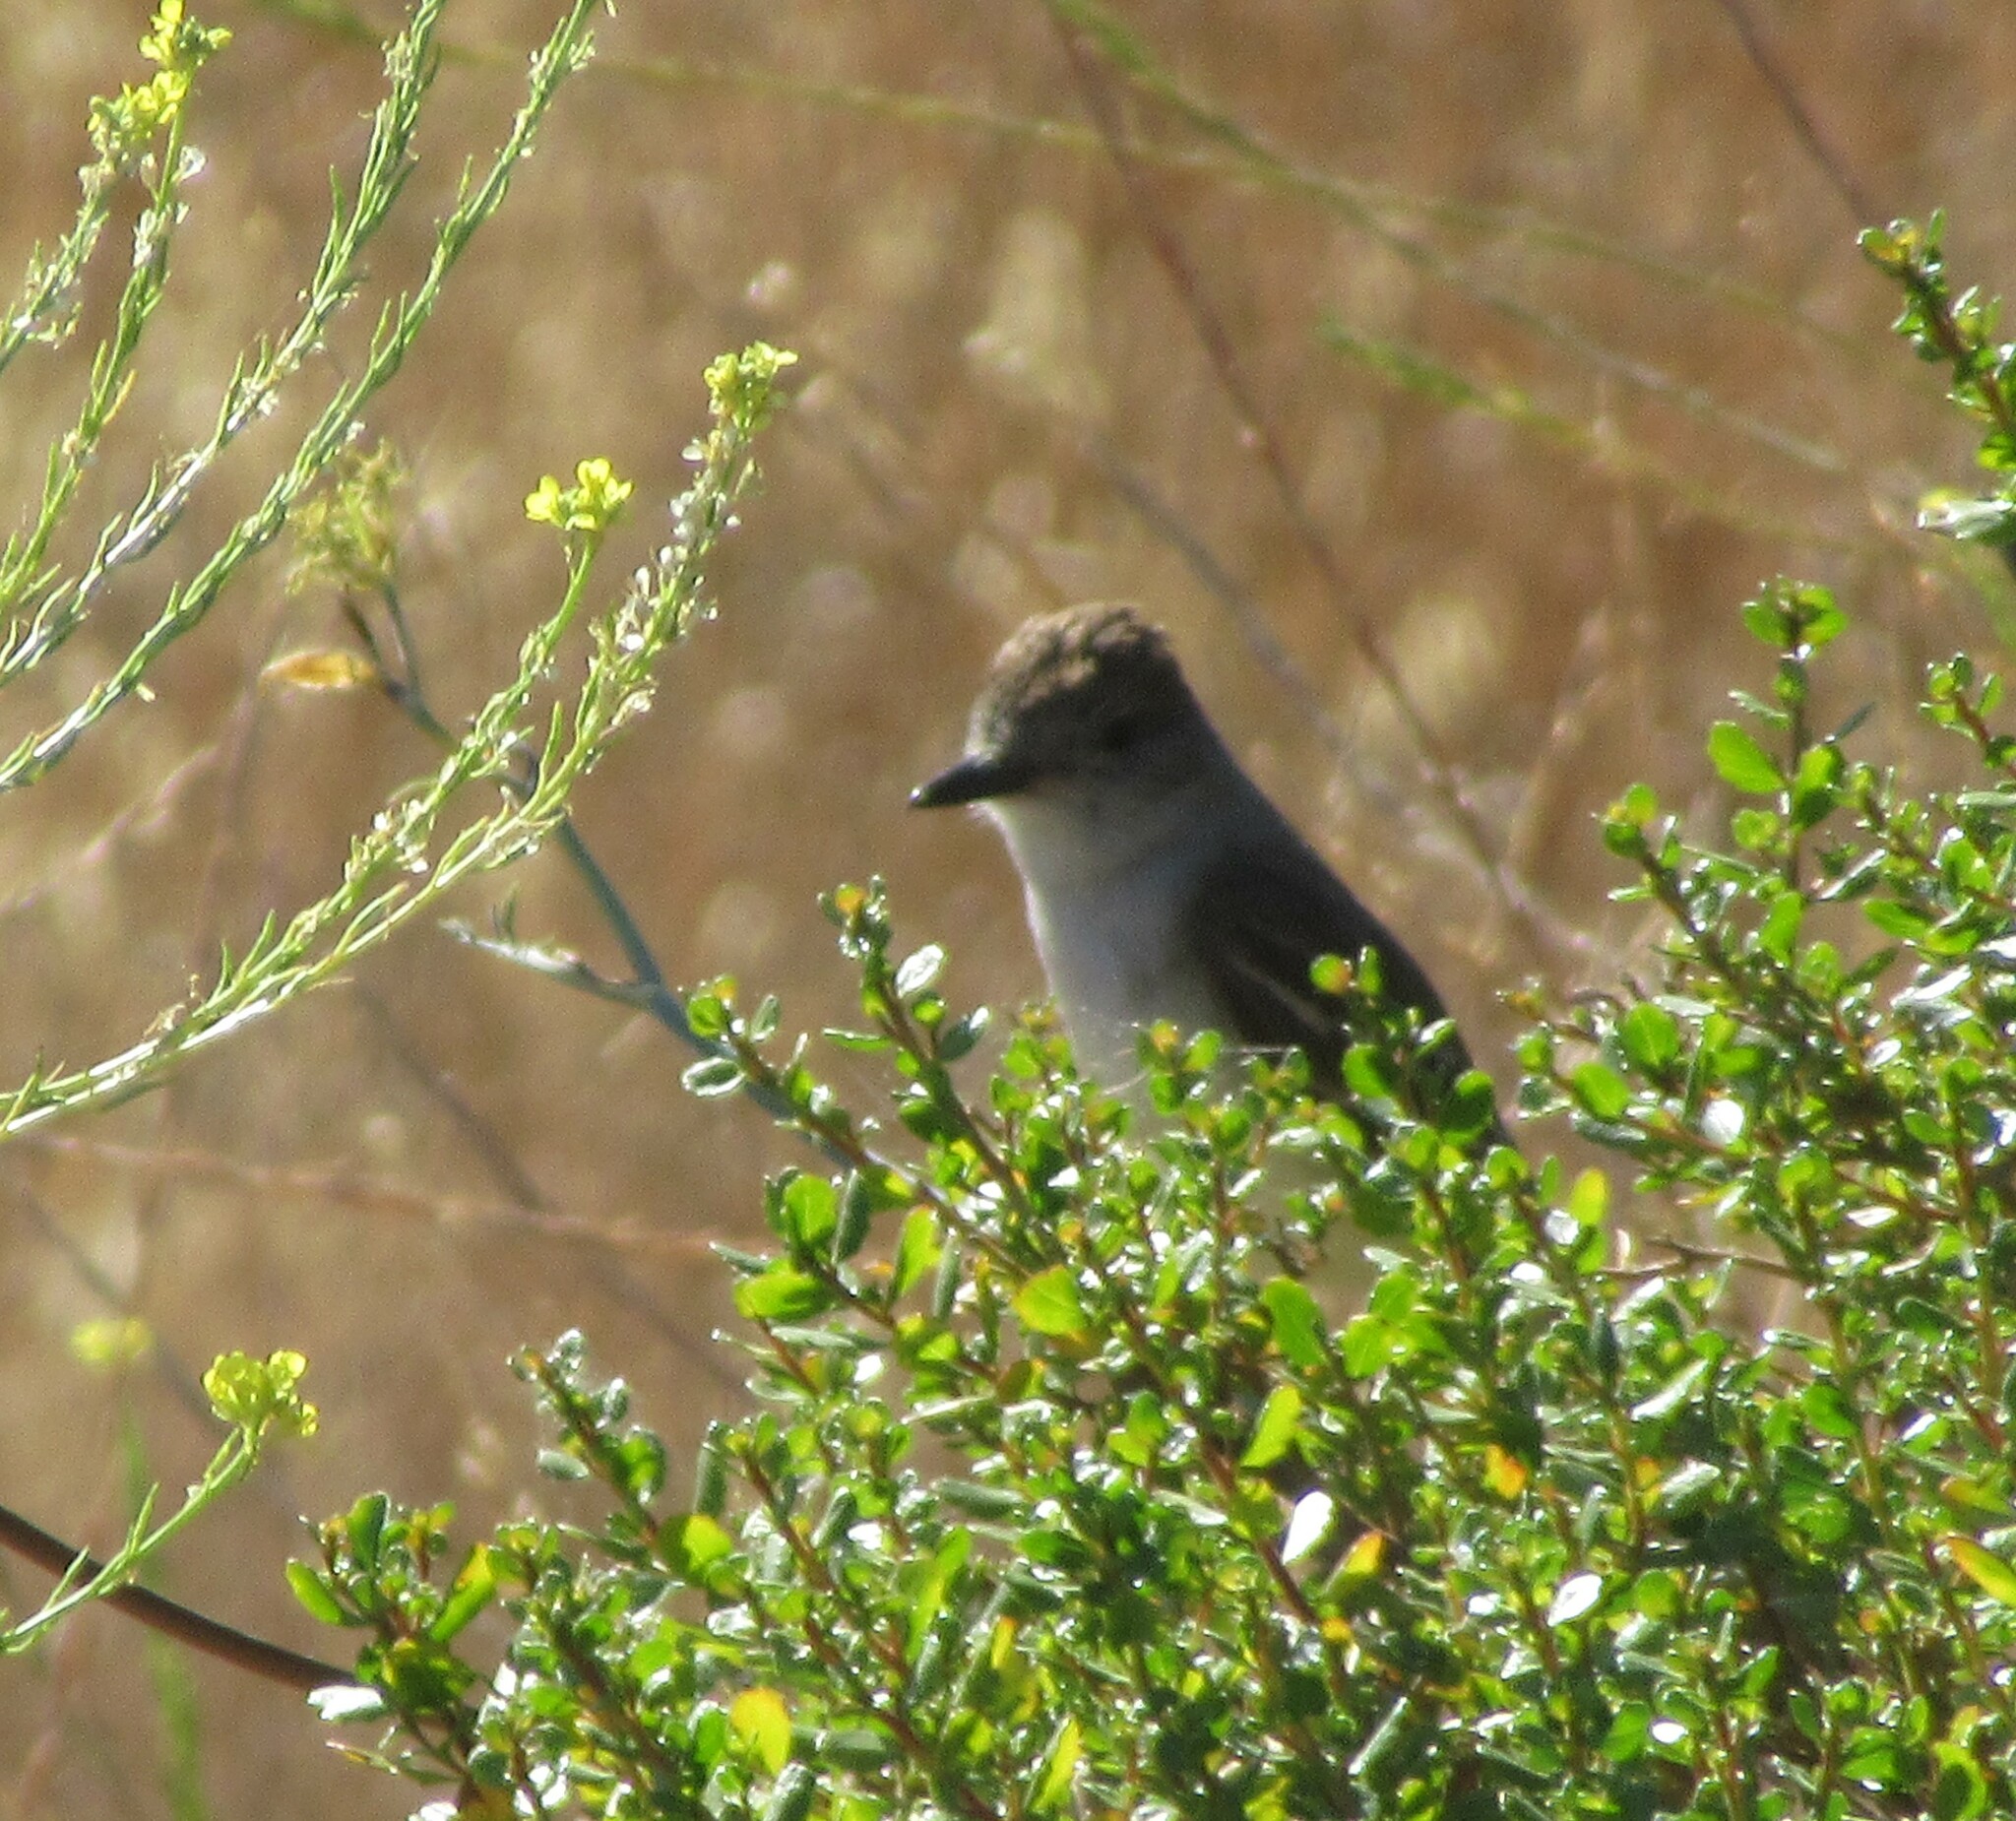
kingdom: Animalia
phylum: Chordata
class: Aves
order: Passeriformes
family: Tyrannidae
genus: Myiarchus
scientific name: Myiarchus cinerascens
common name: Ash-throated flycatcher
